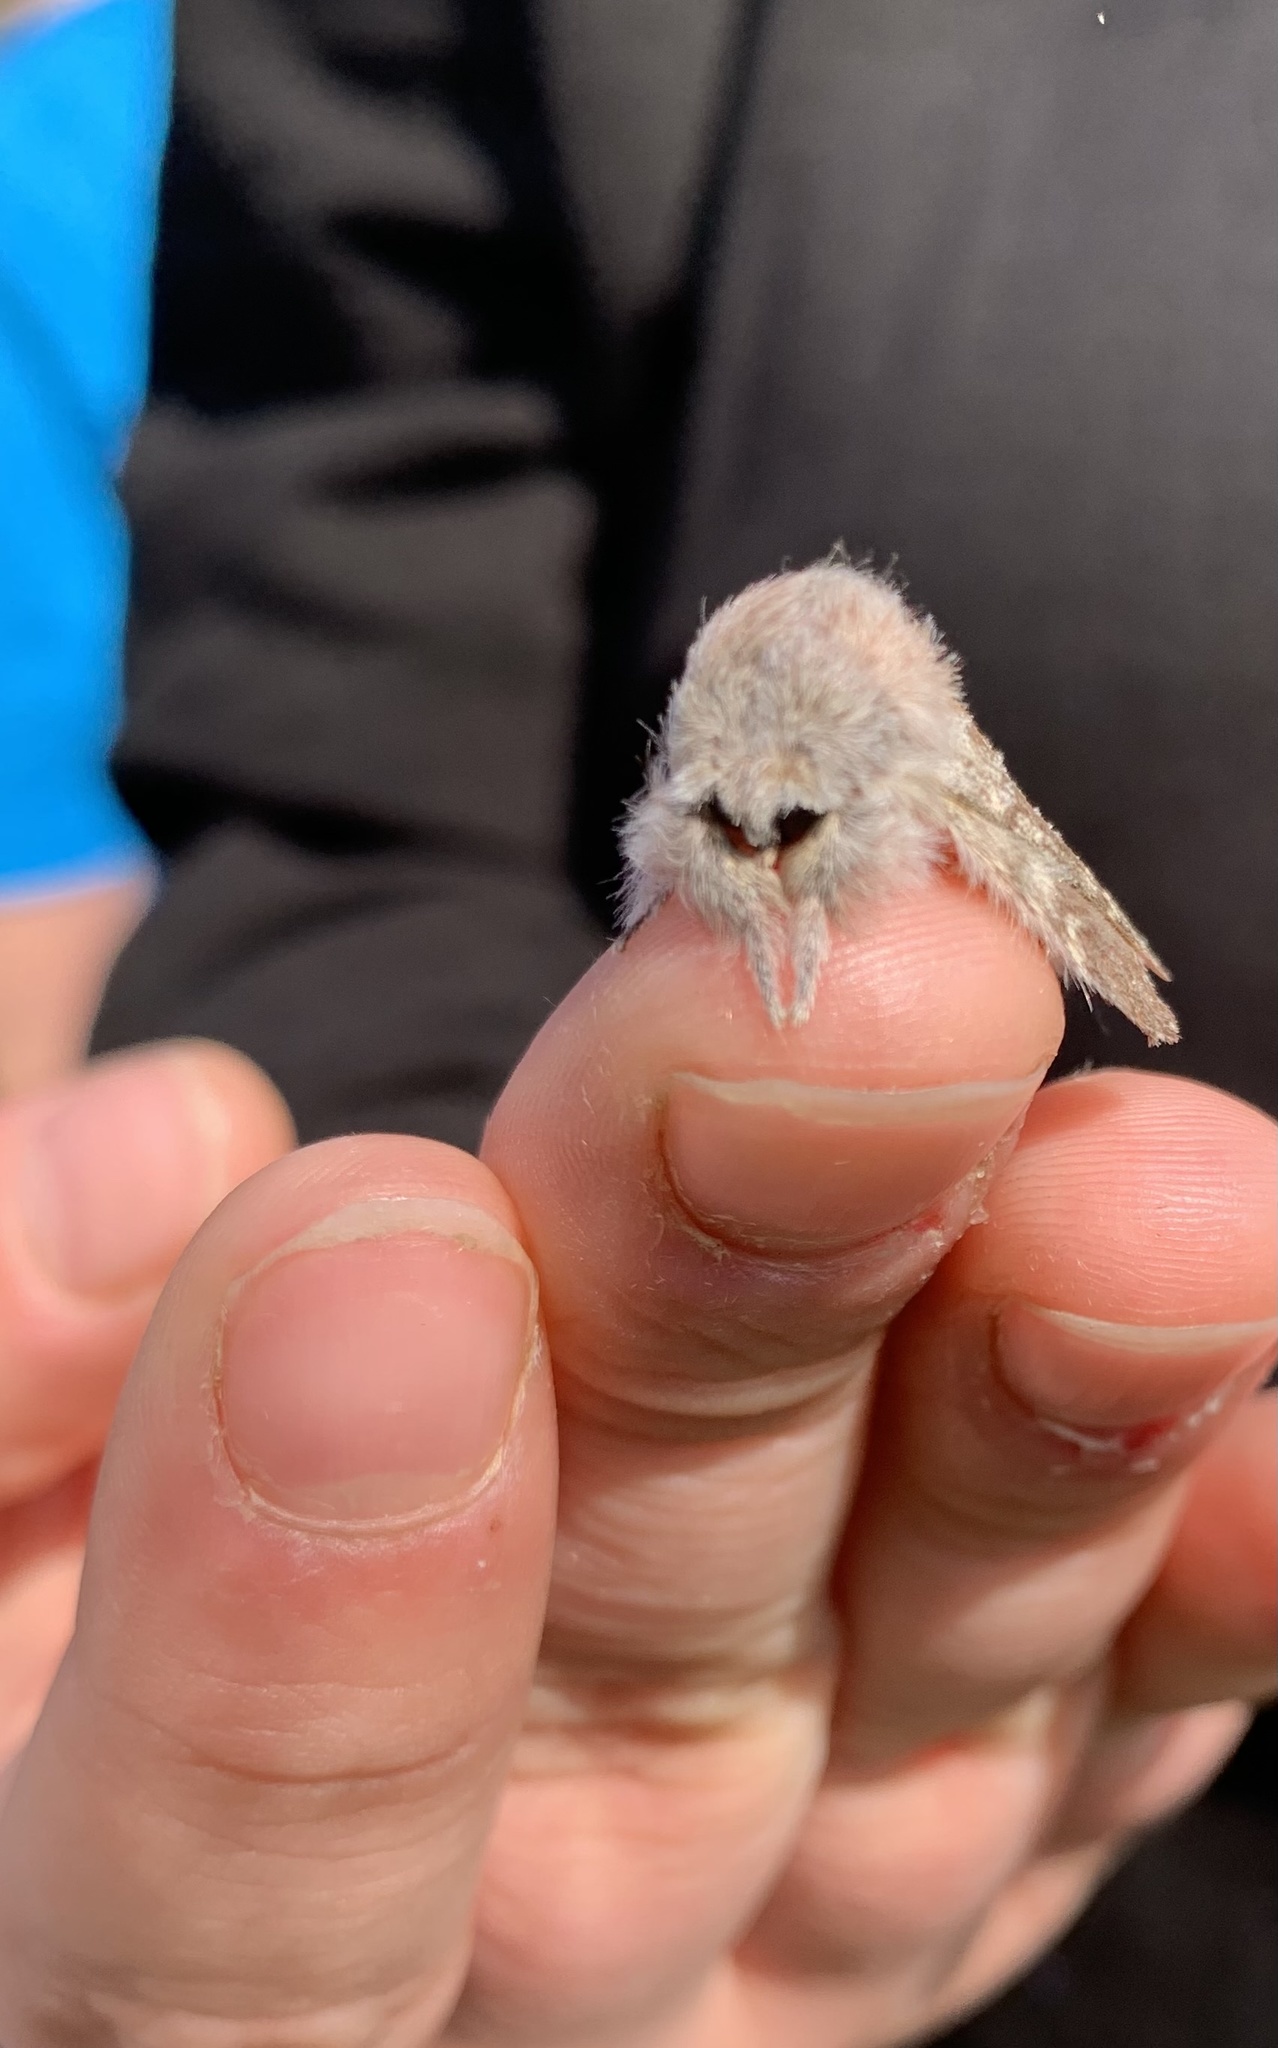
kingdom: Animalia
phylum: Arthropoda
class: Insecta
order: Lepidoptera
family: Notodontidae
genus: Stauropus
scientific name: Stauropus fagi
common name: Lobster moth
